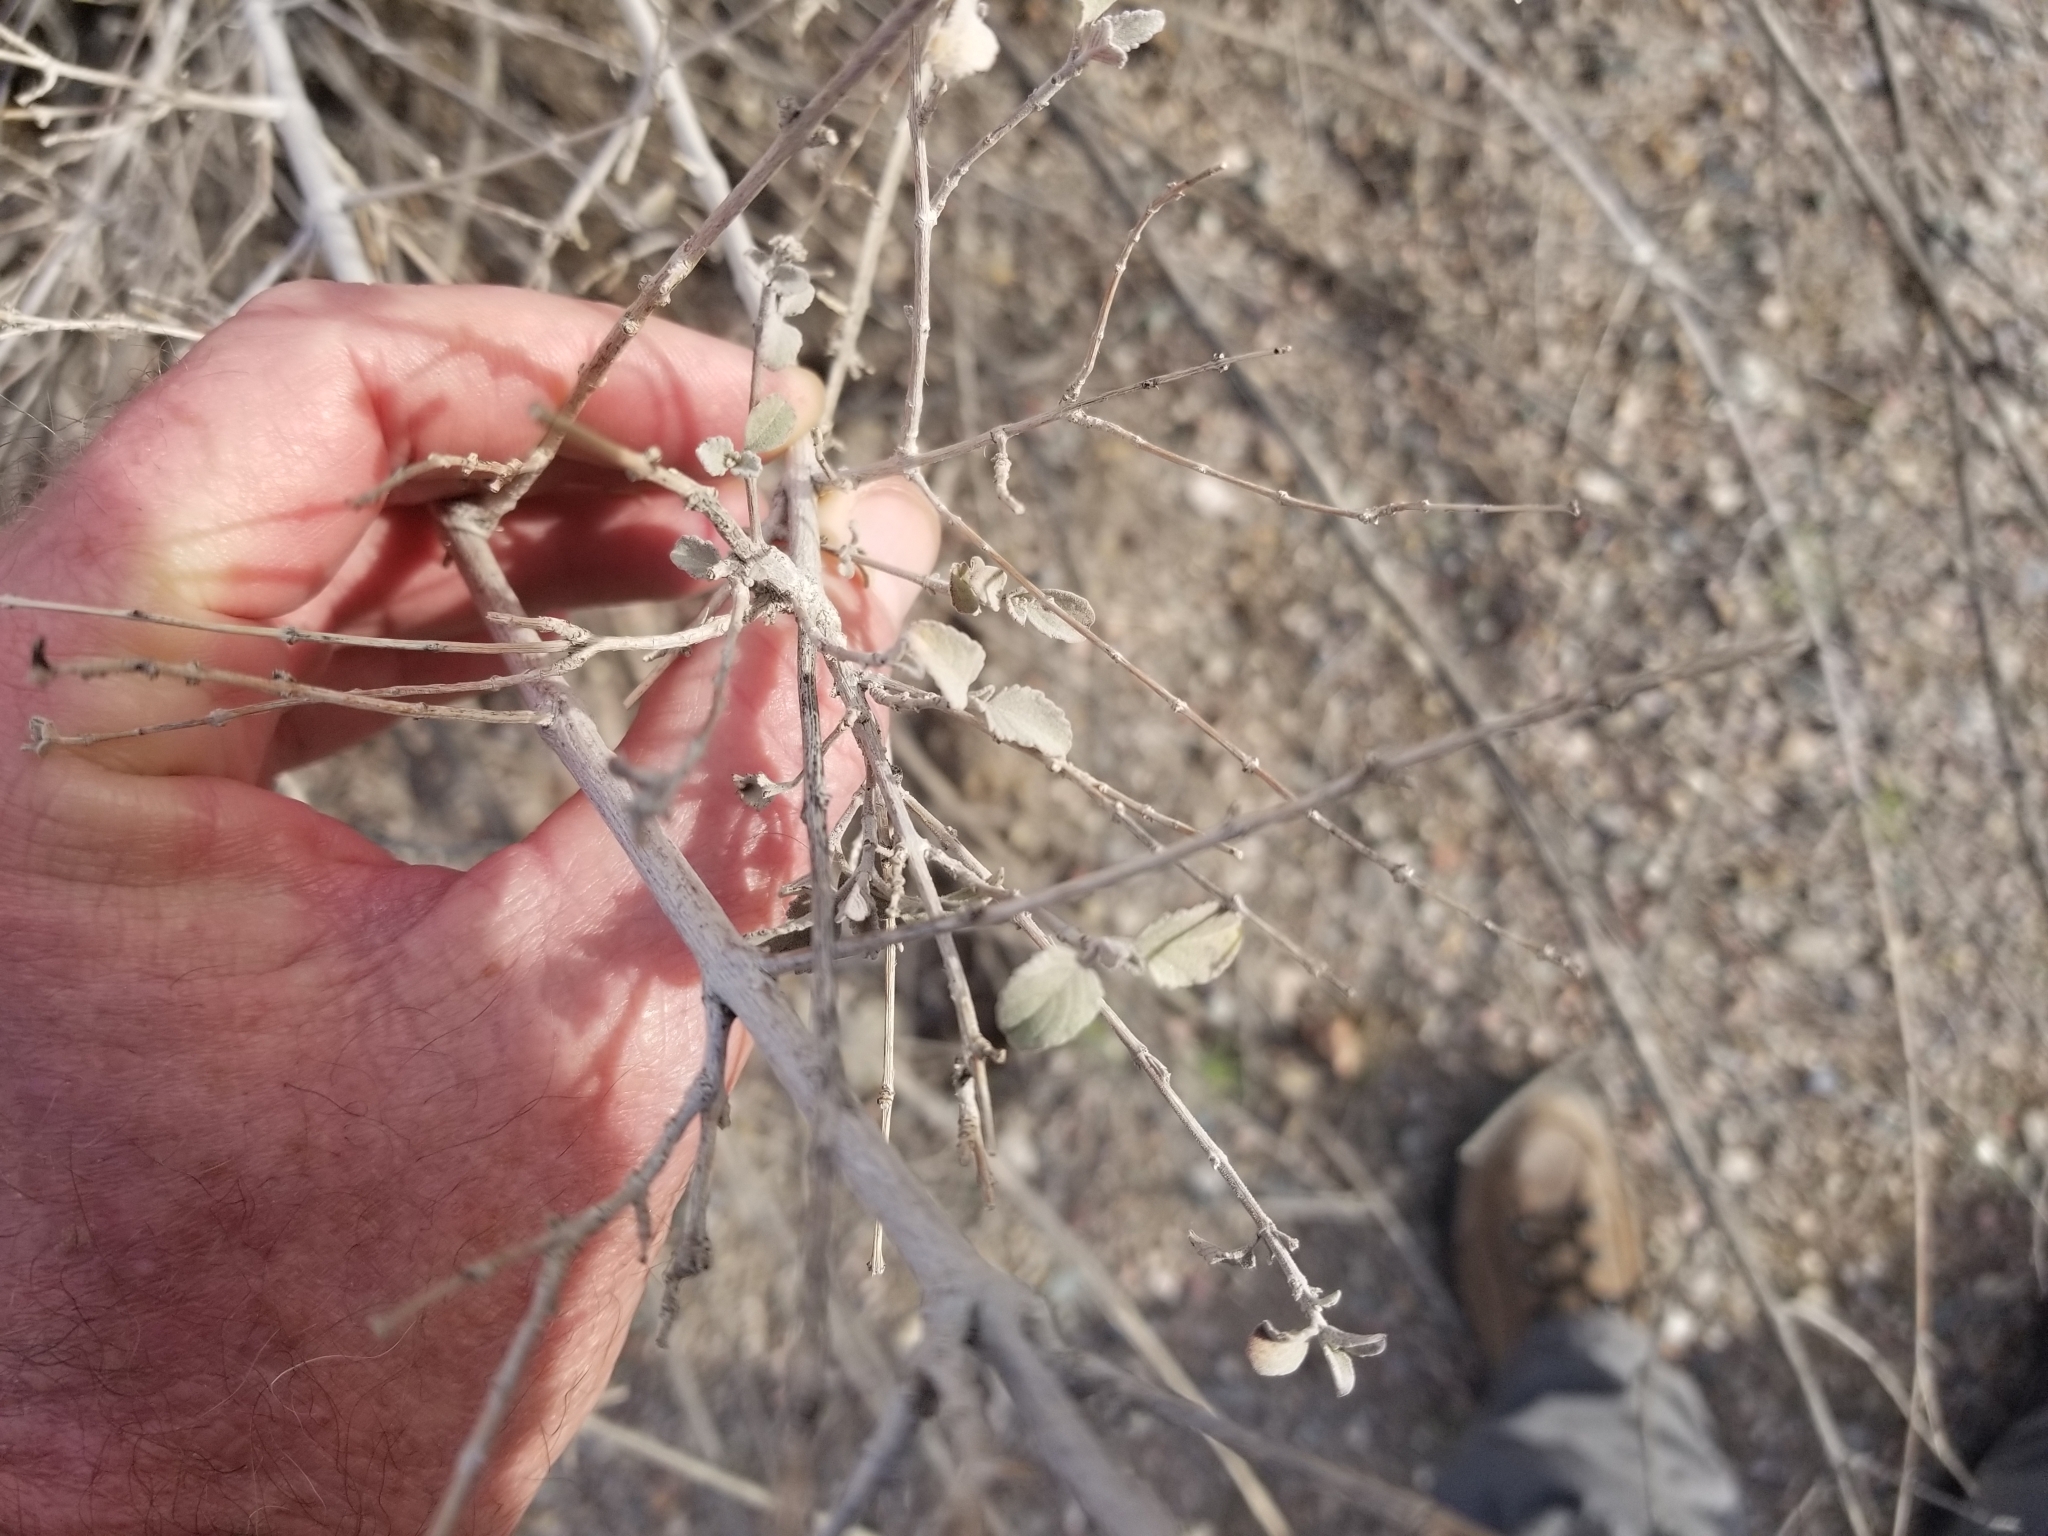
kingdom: Plantae
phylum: Tracheophyta
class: Magnoliopsida
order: Lamiales
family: Lamiaceae
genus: Condea
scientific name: Condea emoryi
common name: Chia
